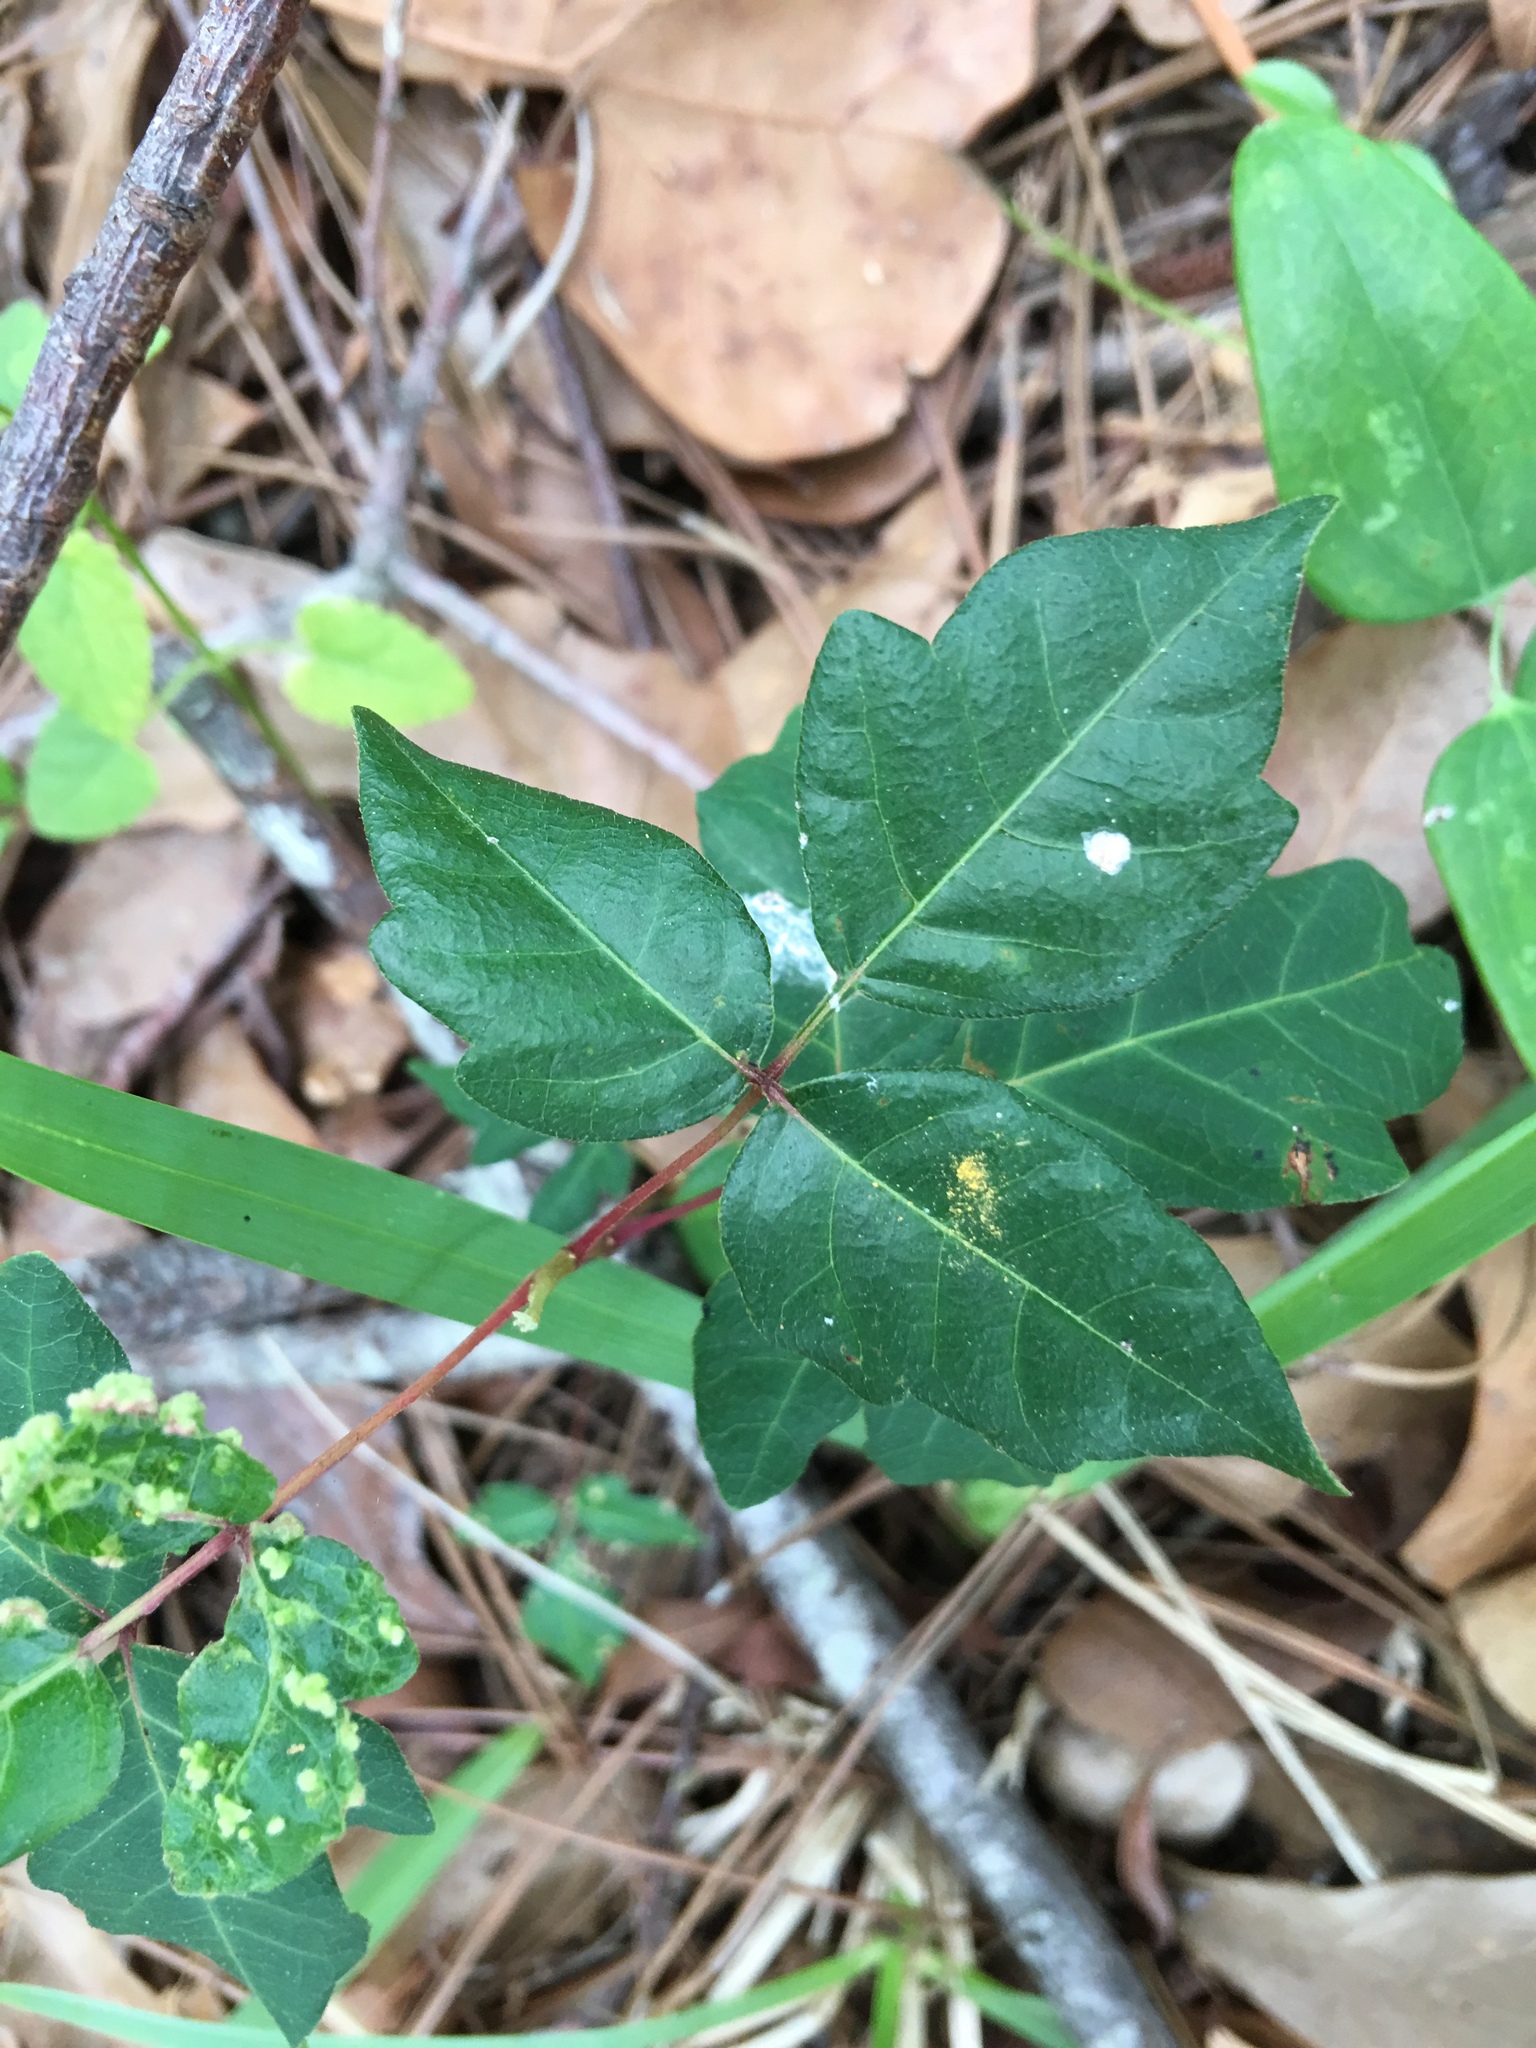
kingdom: Plantae
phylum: Tracheophyta
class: Magnoliopsida
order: Sapindales
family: Anacardiaceae
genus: Toxicodendron
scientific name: Toxicodendron radicans
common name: Poison ivy
